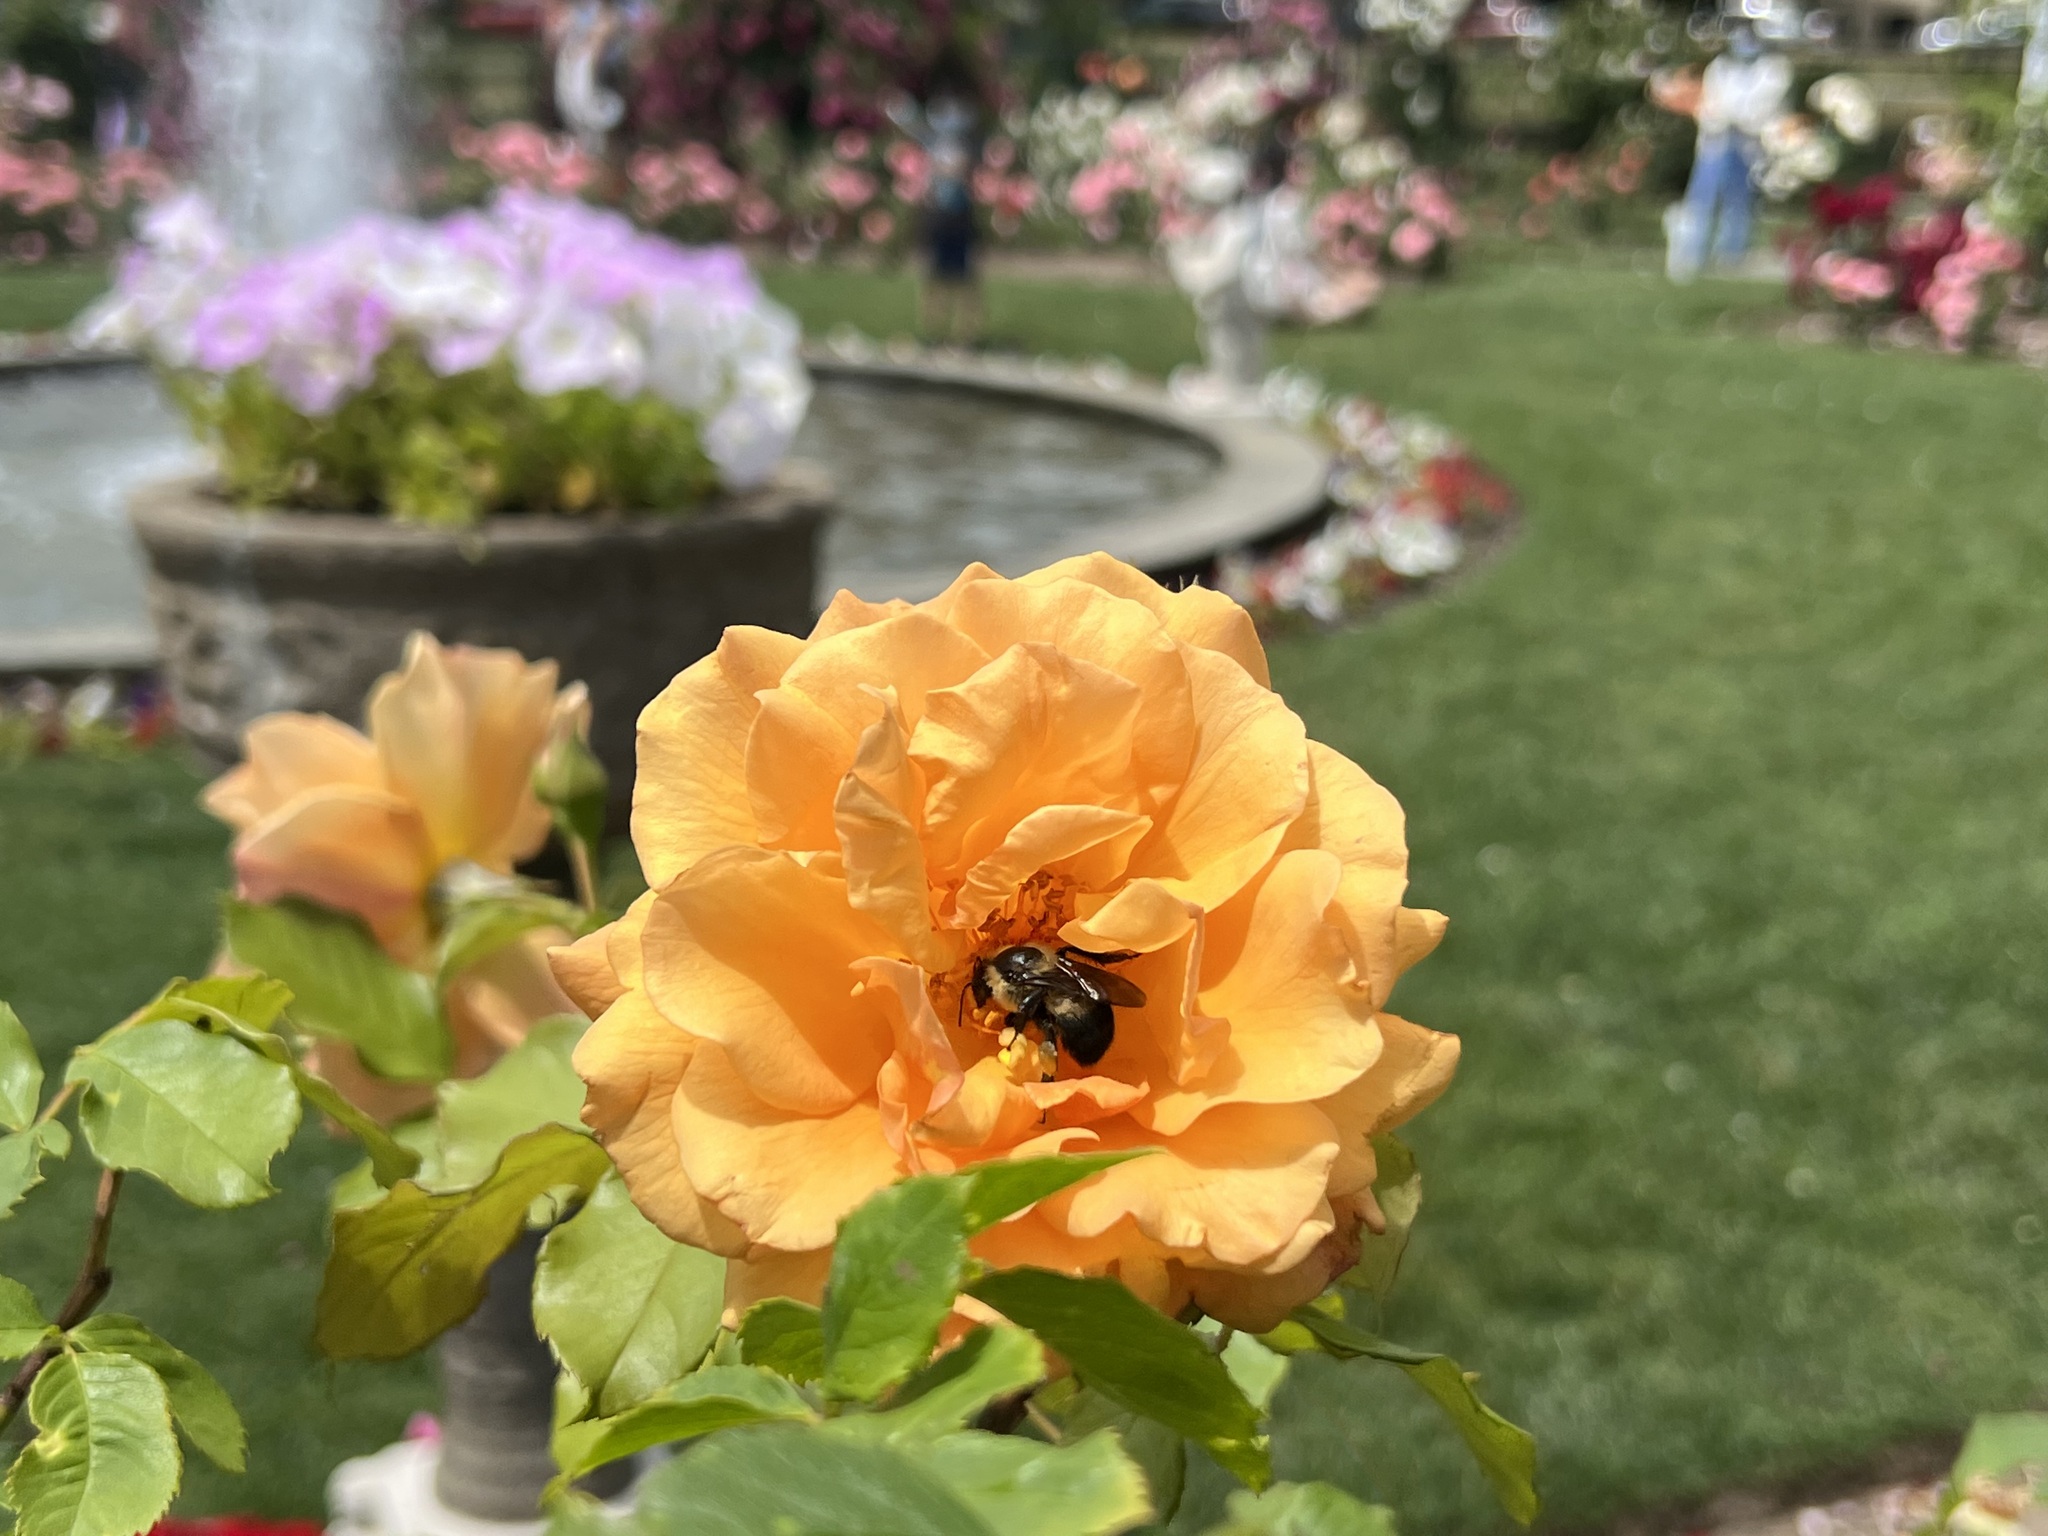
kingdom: Animalia
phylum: Arthropoda
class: Insecta
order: Hymenoptera
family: Apidae
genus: Bombus
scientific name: Bombus griseocollis
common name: Brown-belted bumble bee
